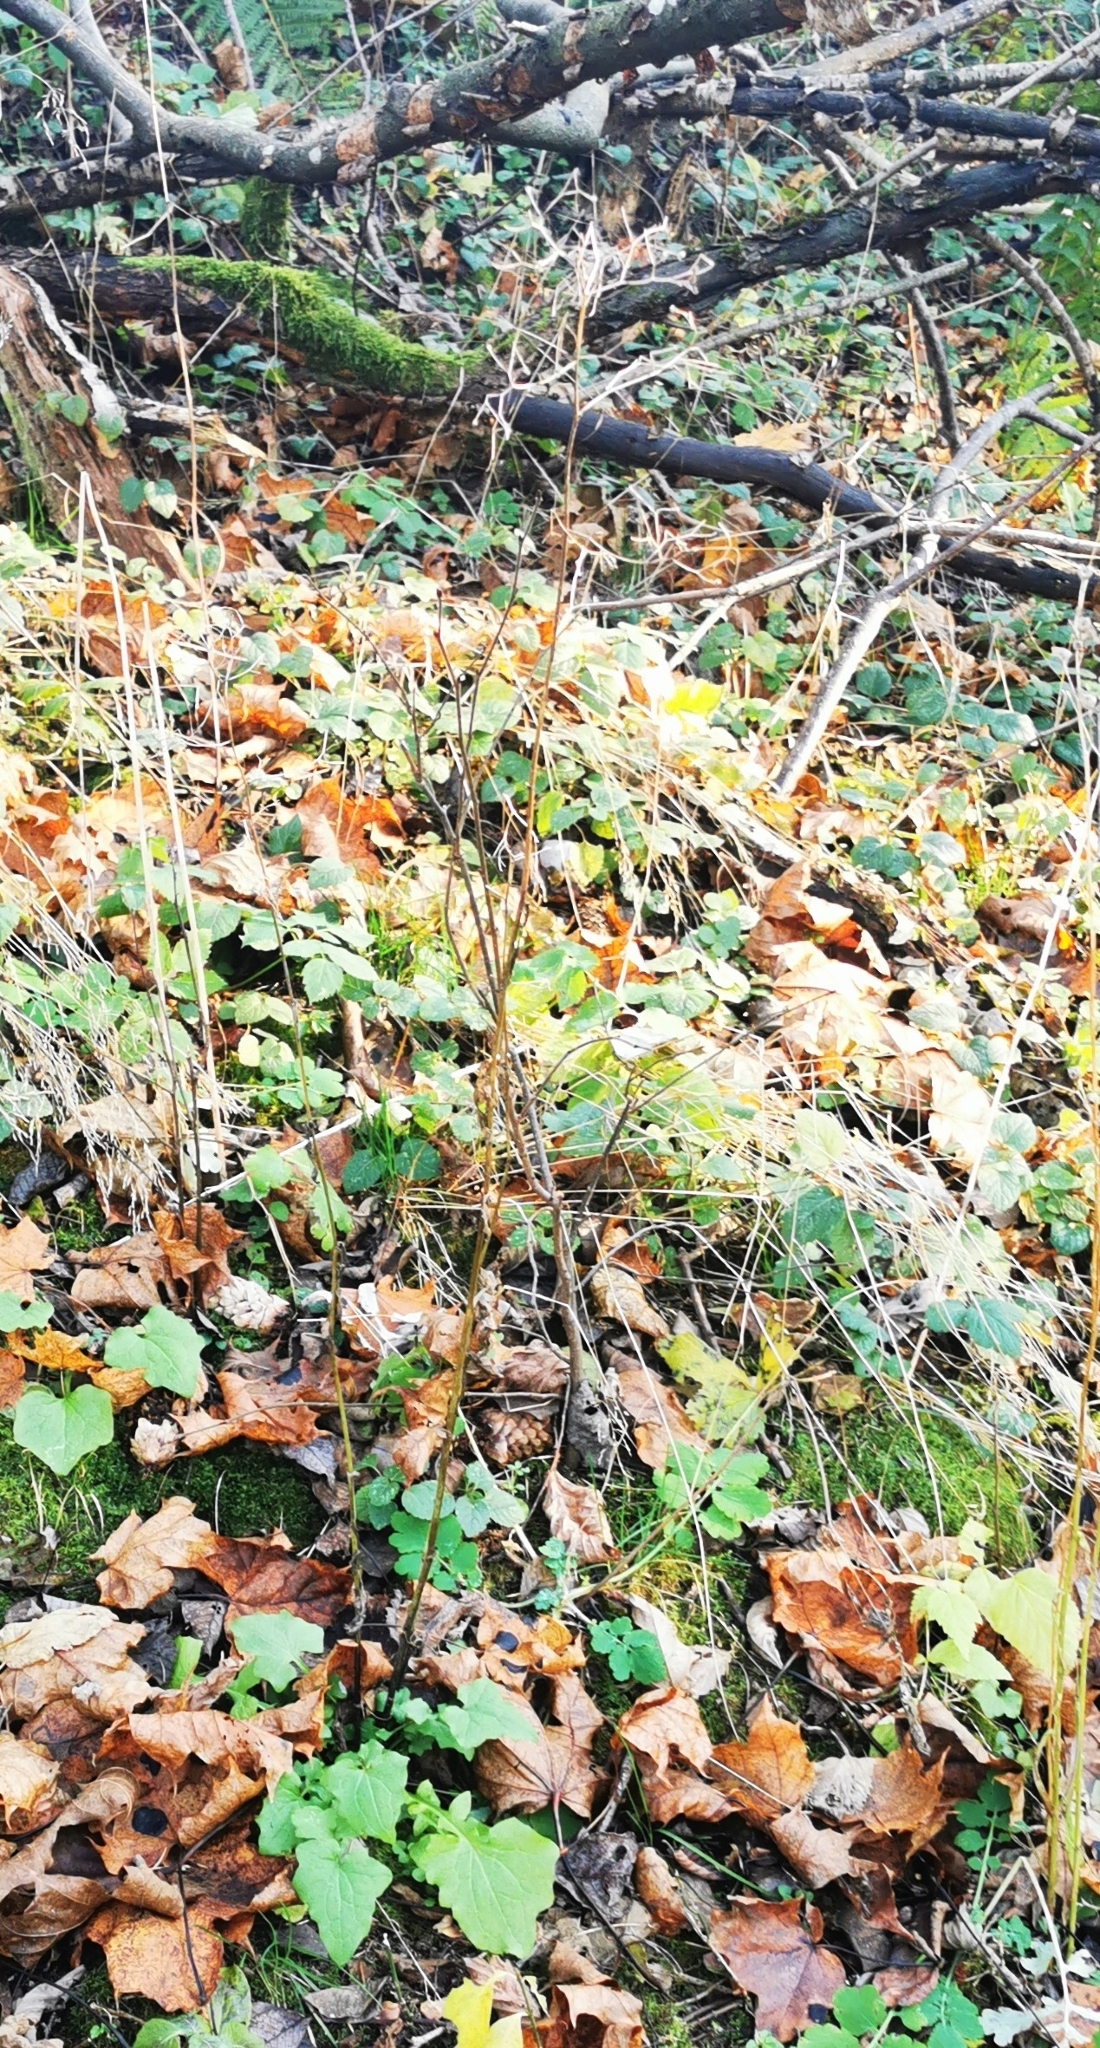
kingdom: Plantae
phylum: Tracheophyta
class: Magnoliopsida
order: Asterales
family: Asteraceae
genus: Mycelis
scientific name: Mycelis muralis
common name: Wall lettuce
